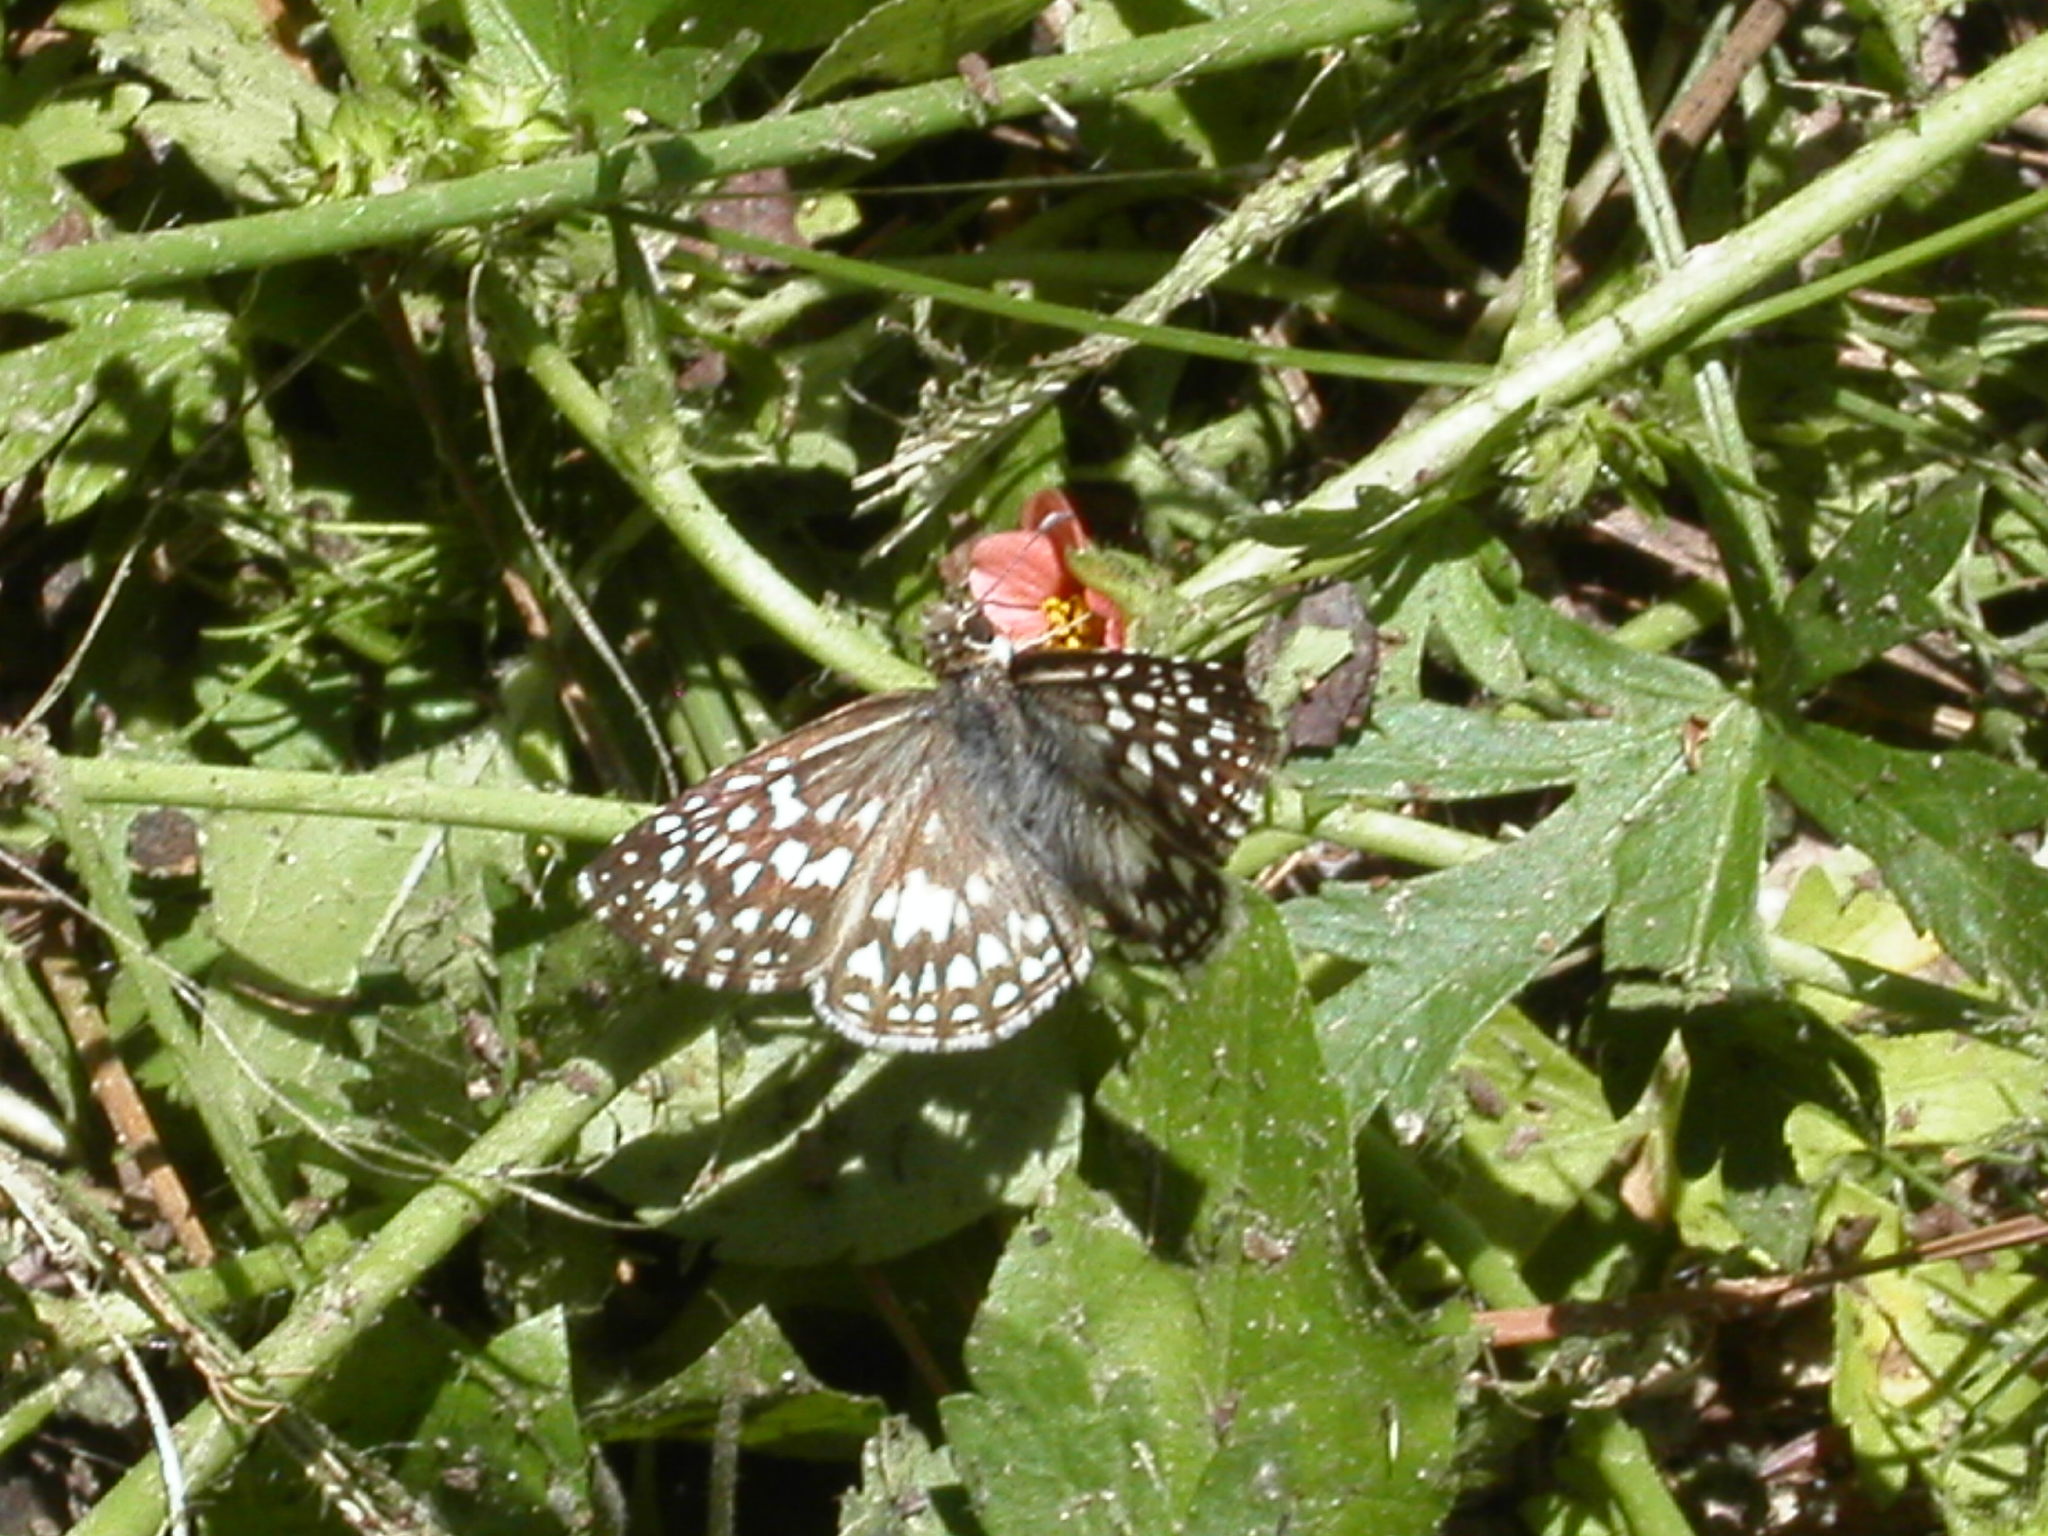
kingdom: Animalia
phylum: Arthropoda
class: Insecta
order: Lepidoptera
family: Hesperiidae
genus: Pyrgus
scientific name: Pyrgus oileus
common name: Tropical checkered-skipper
